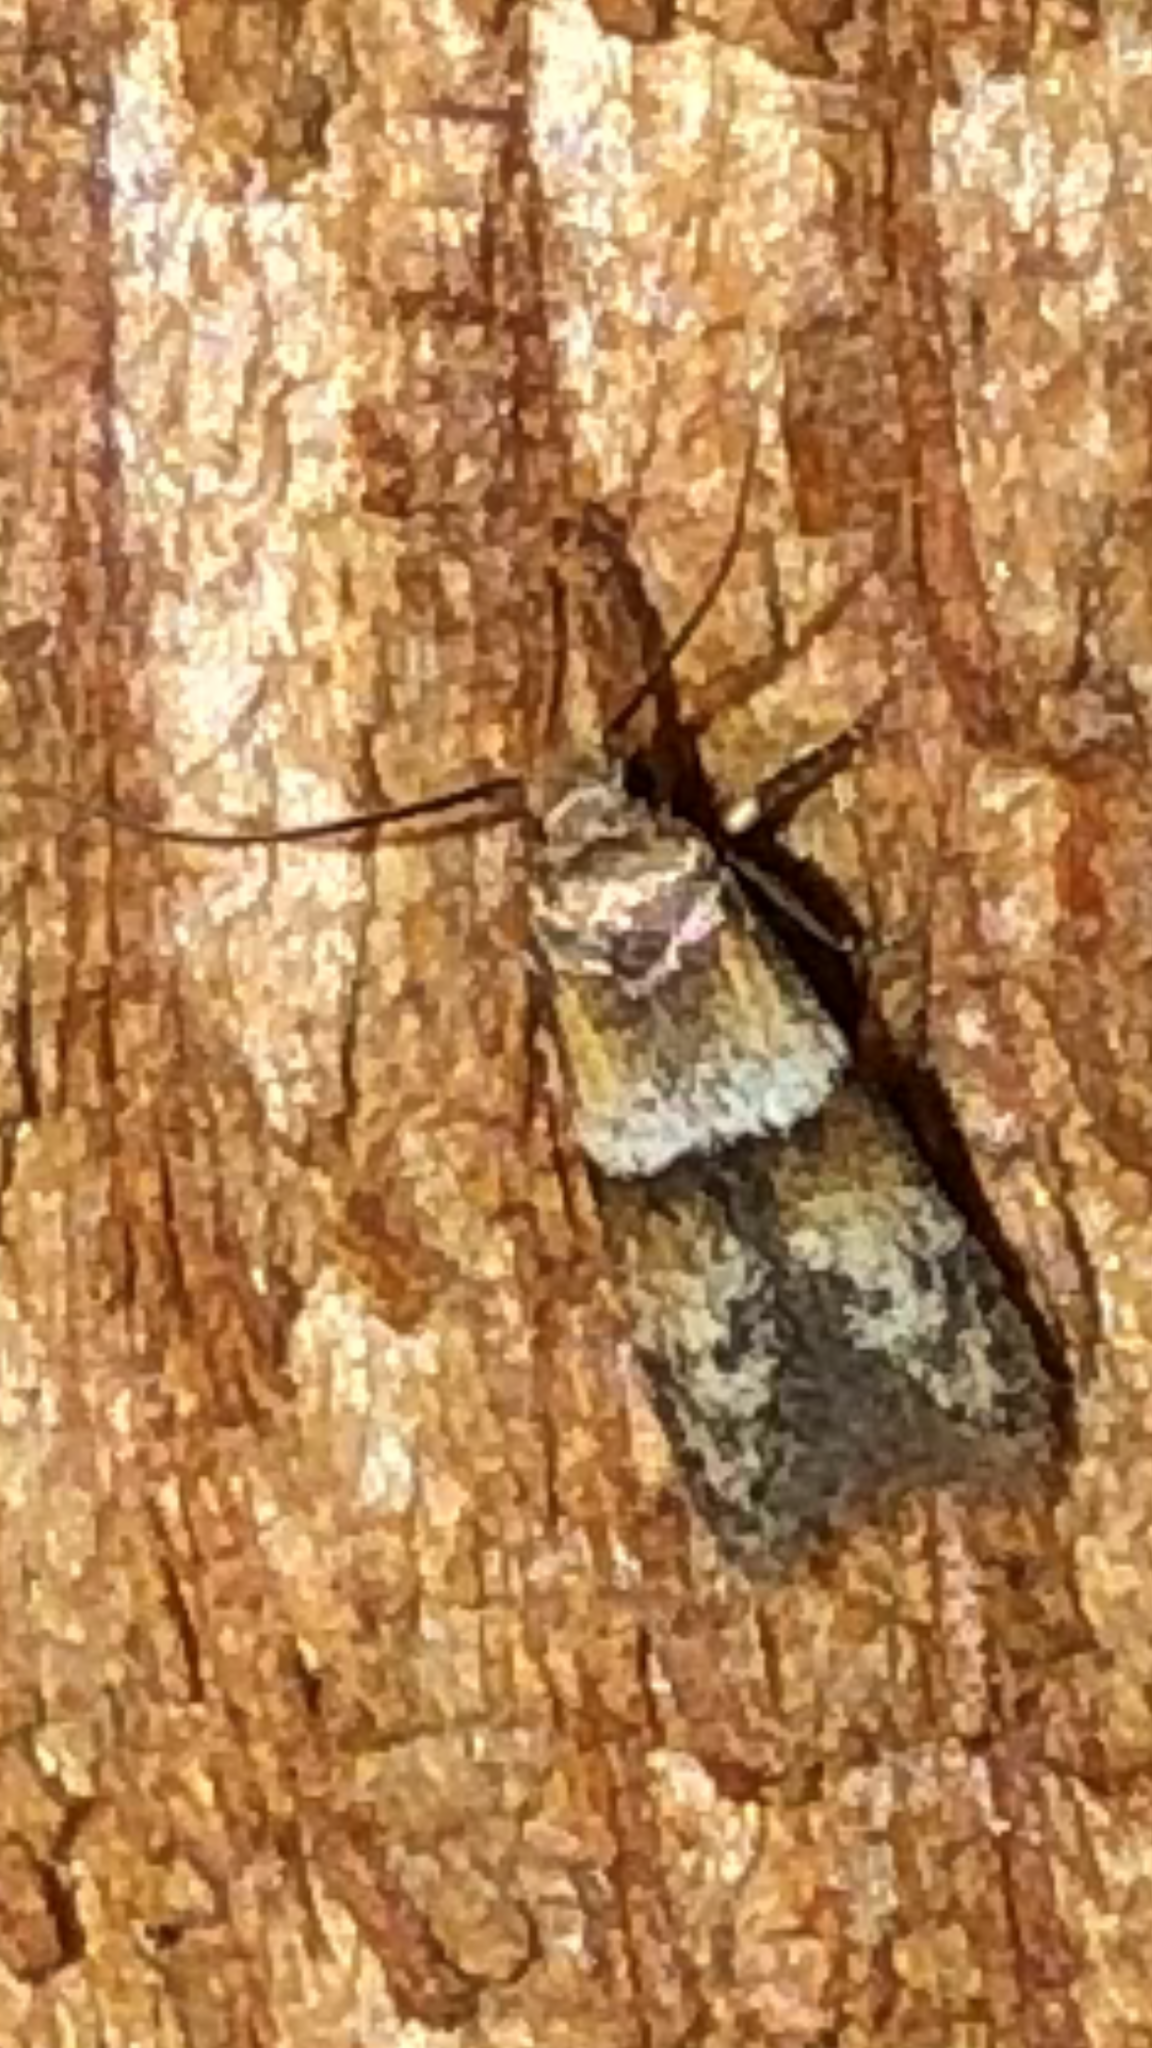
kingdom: Animalia
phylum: Arthropoda
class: Insecta
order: Lepidoptera
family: Blastobasidae
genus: Blastobasis
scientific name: Blastobasis pulchella
